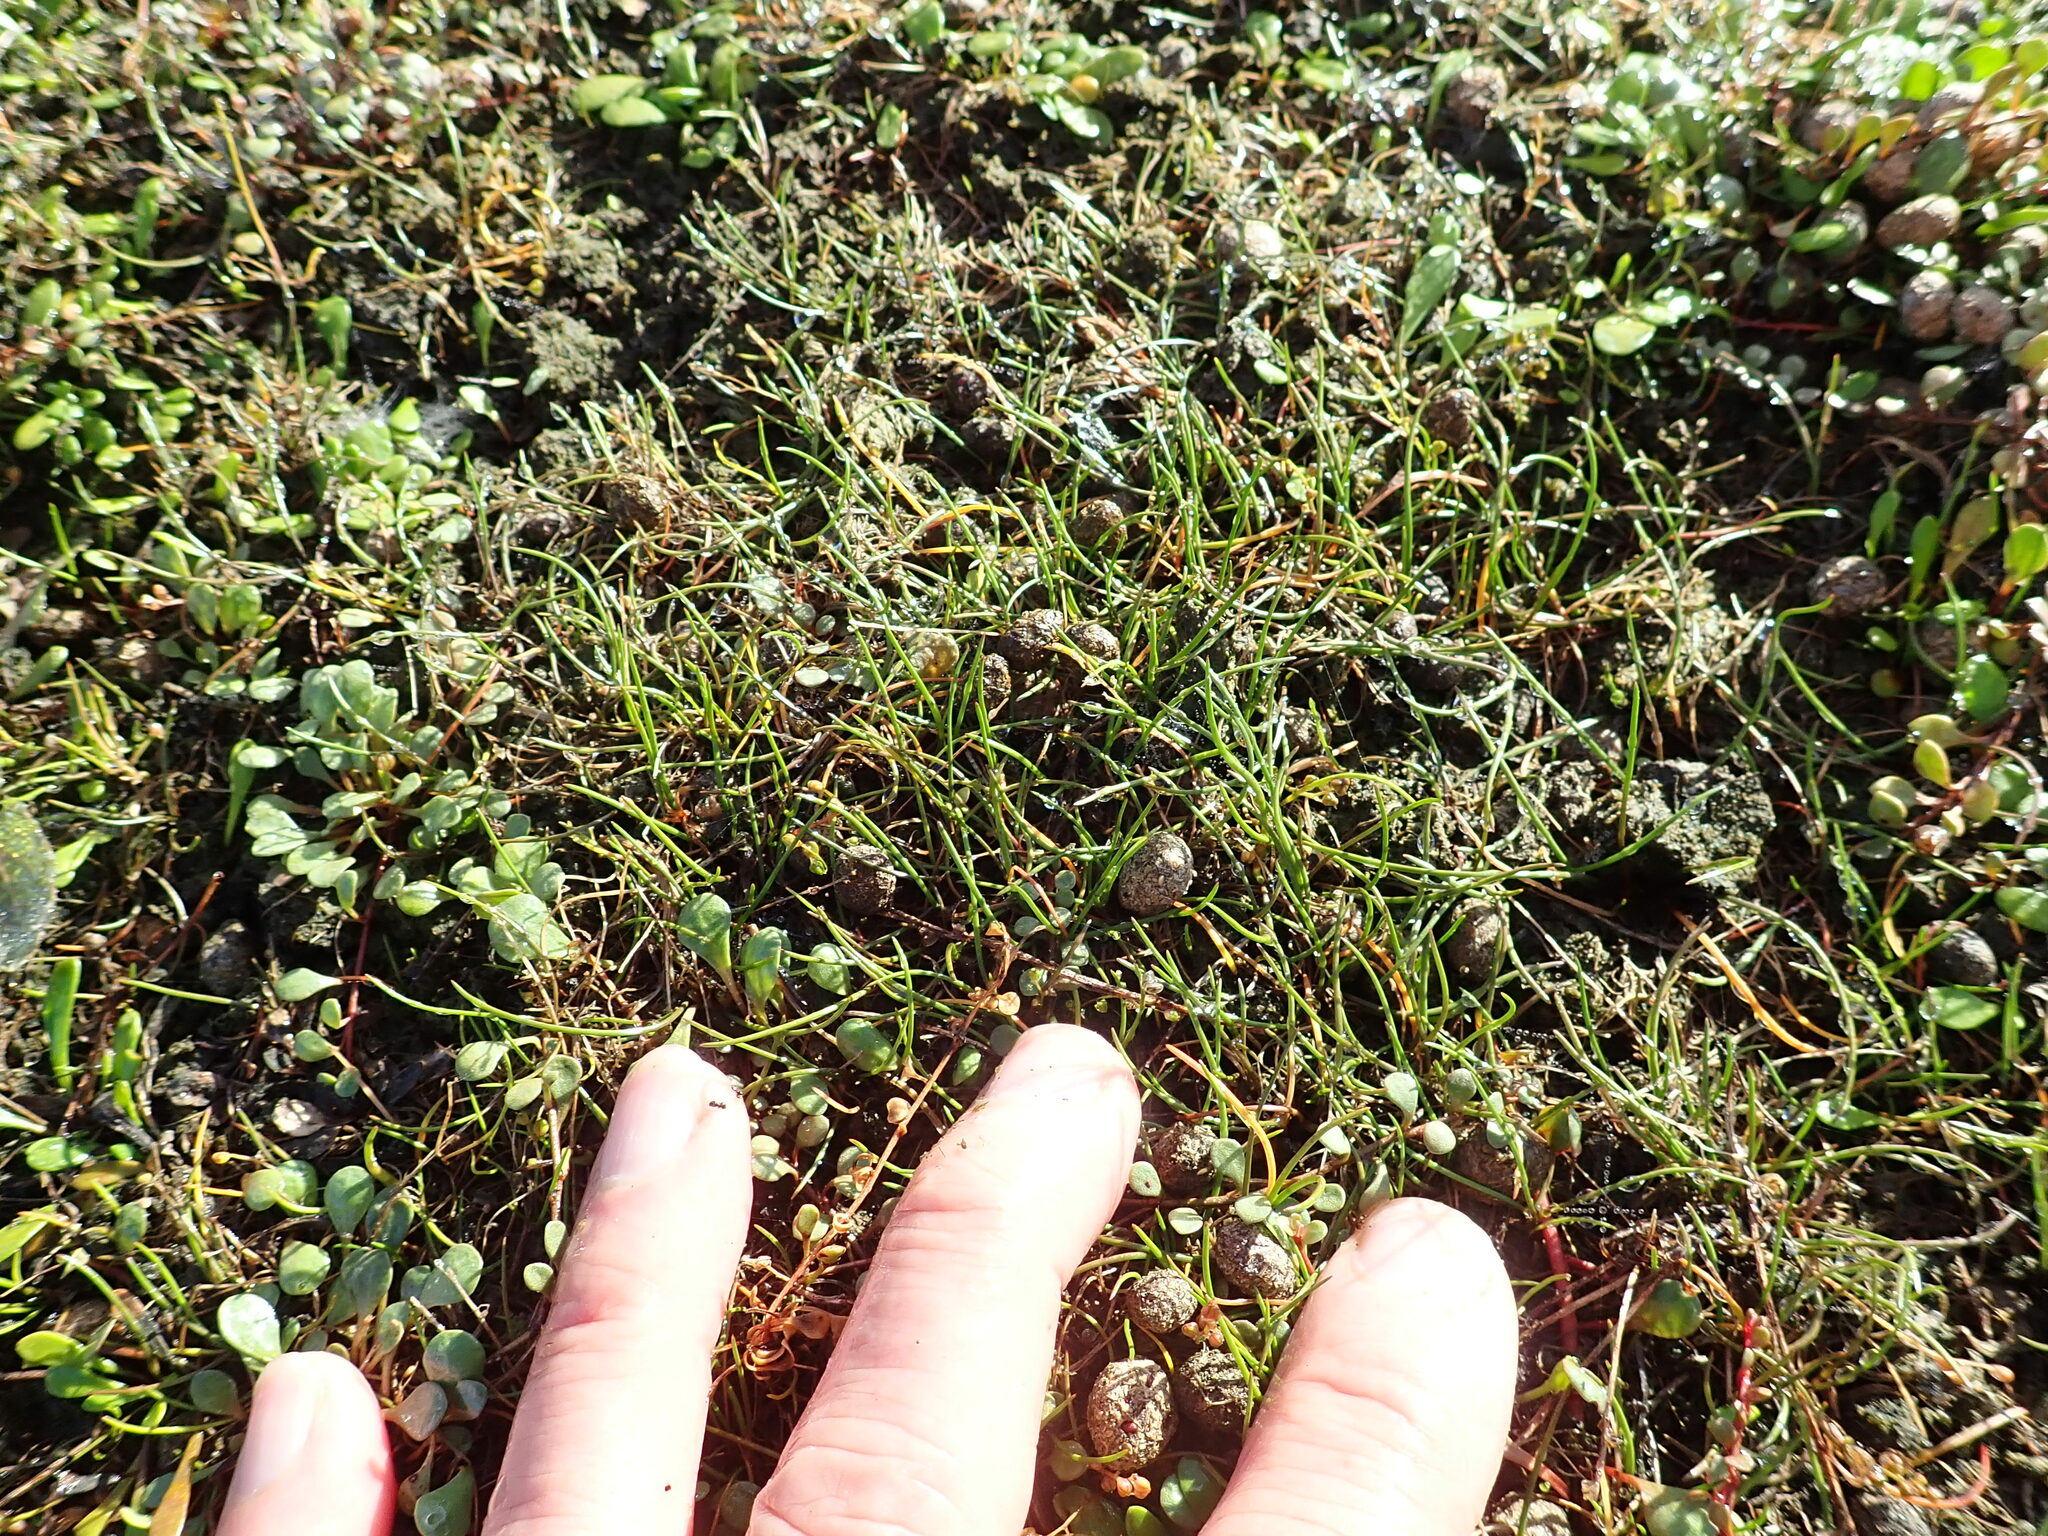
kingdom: Plantae
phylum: Tracheophyta
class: Liliopsida
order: Alismatales
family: Juncaginaceae
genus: Triglochin
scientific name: Triglochin striata
